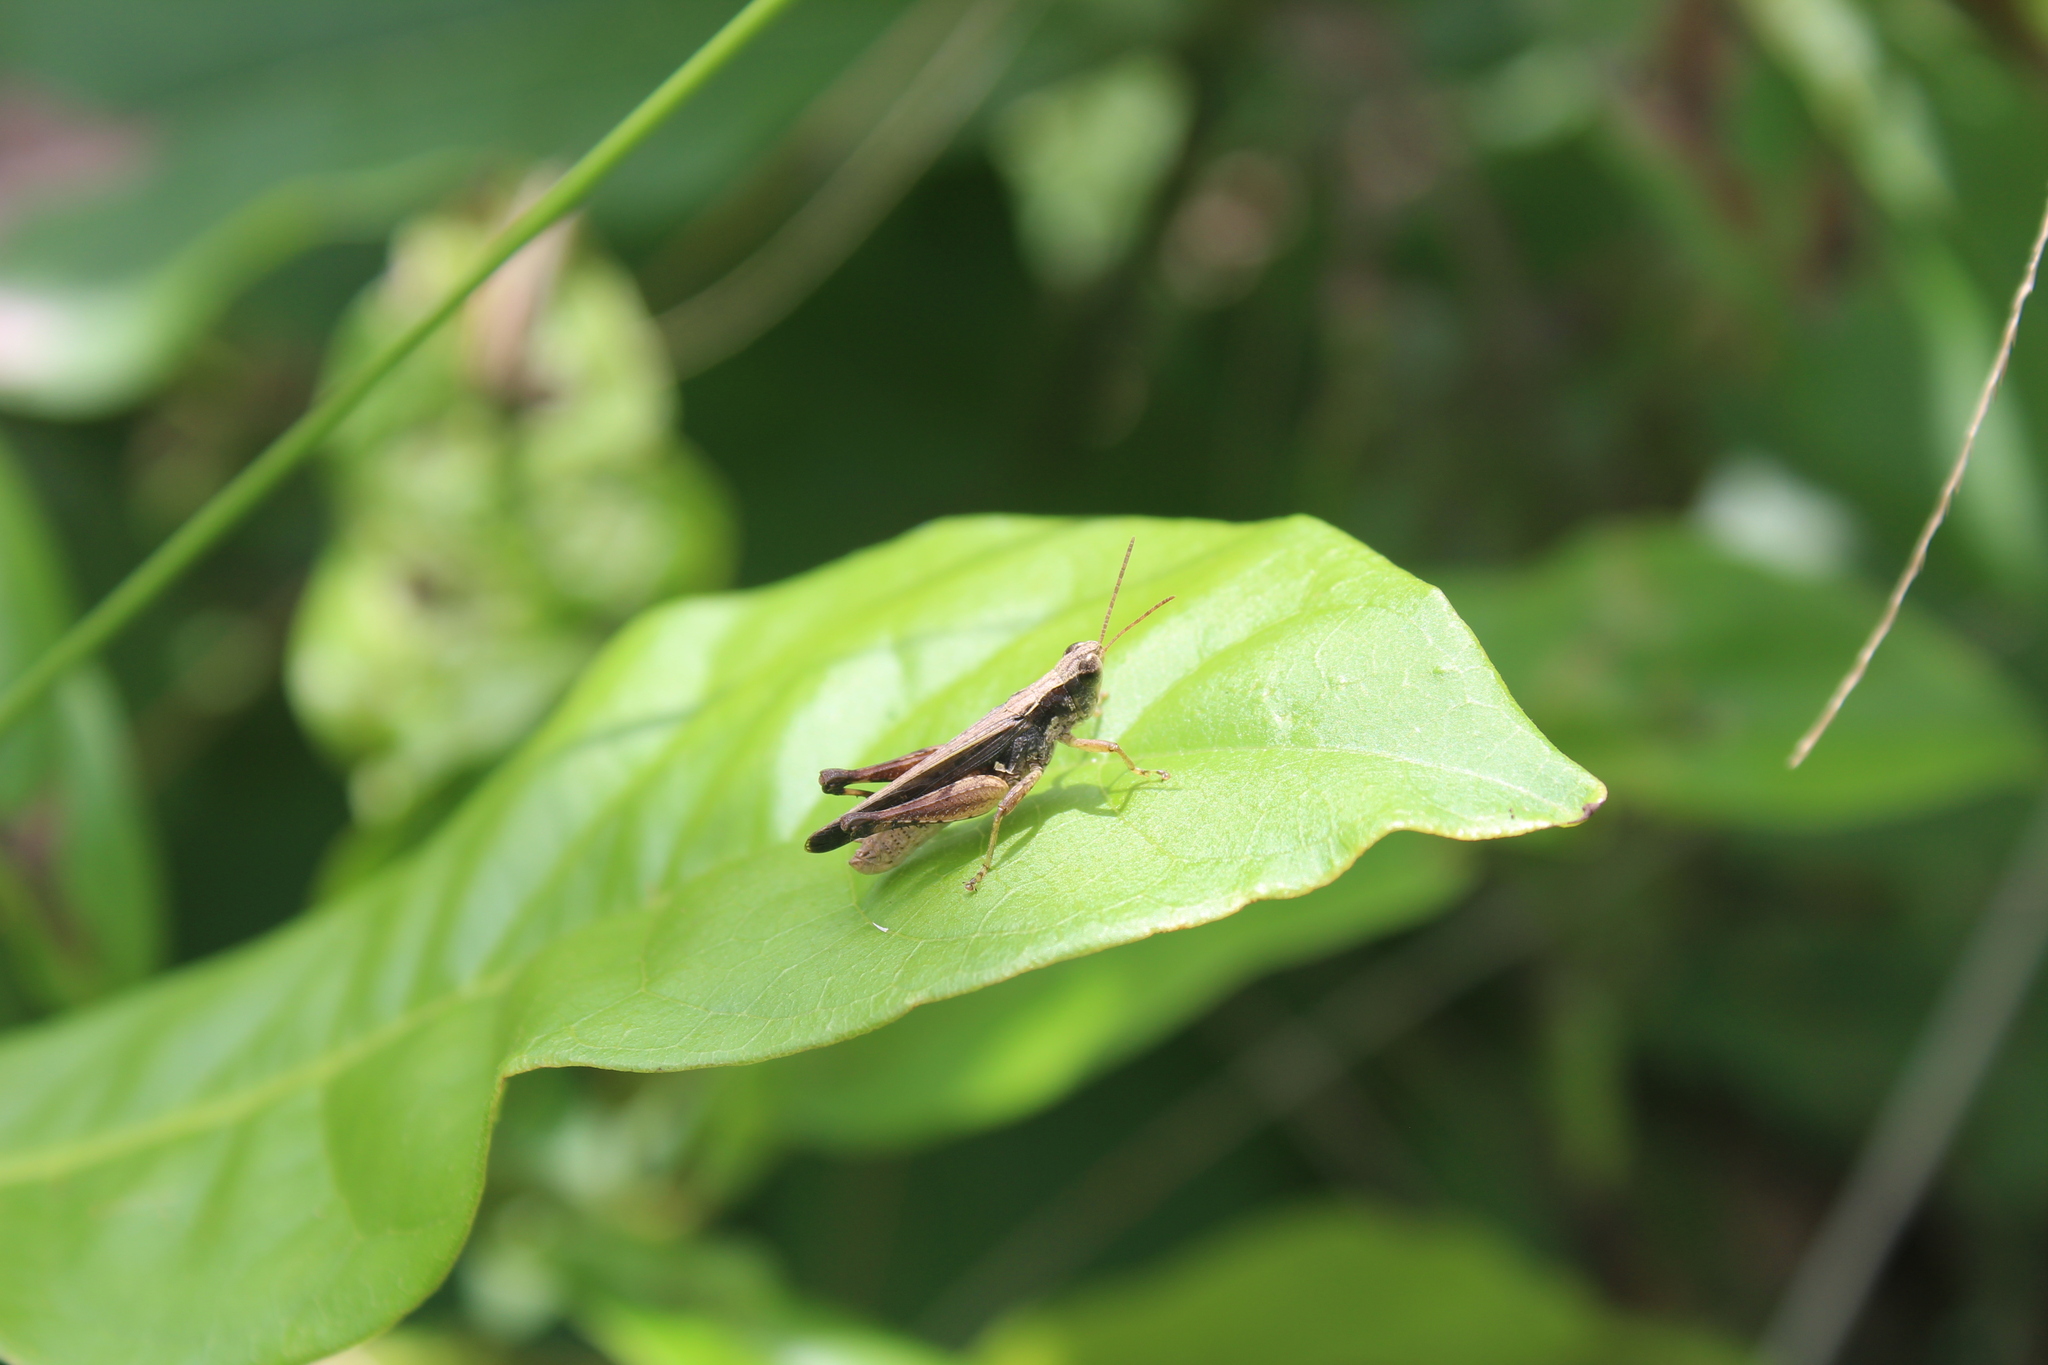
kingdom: Animalia
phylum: Arthropoda
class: Insecta
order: Orthoptera
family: Acrididae
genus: Orphulella
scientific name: Orphulella punctata
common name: Slant-faced grasshopper
